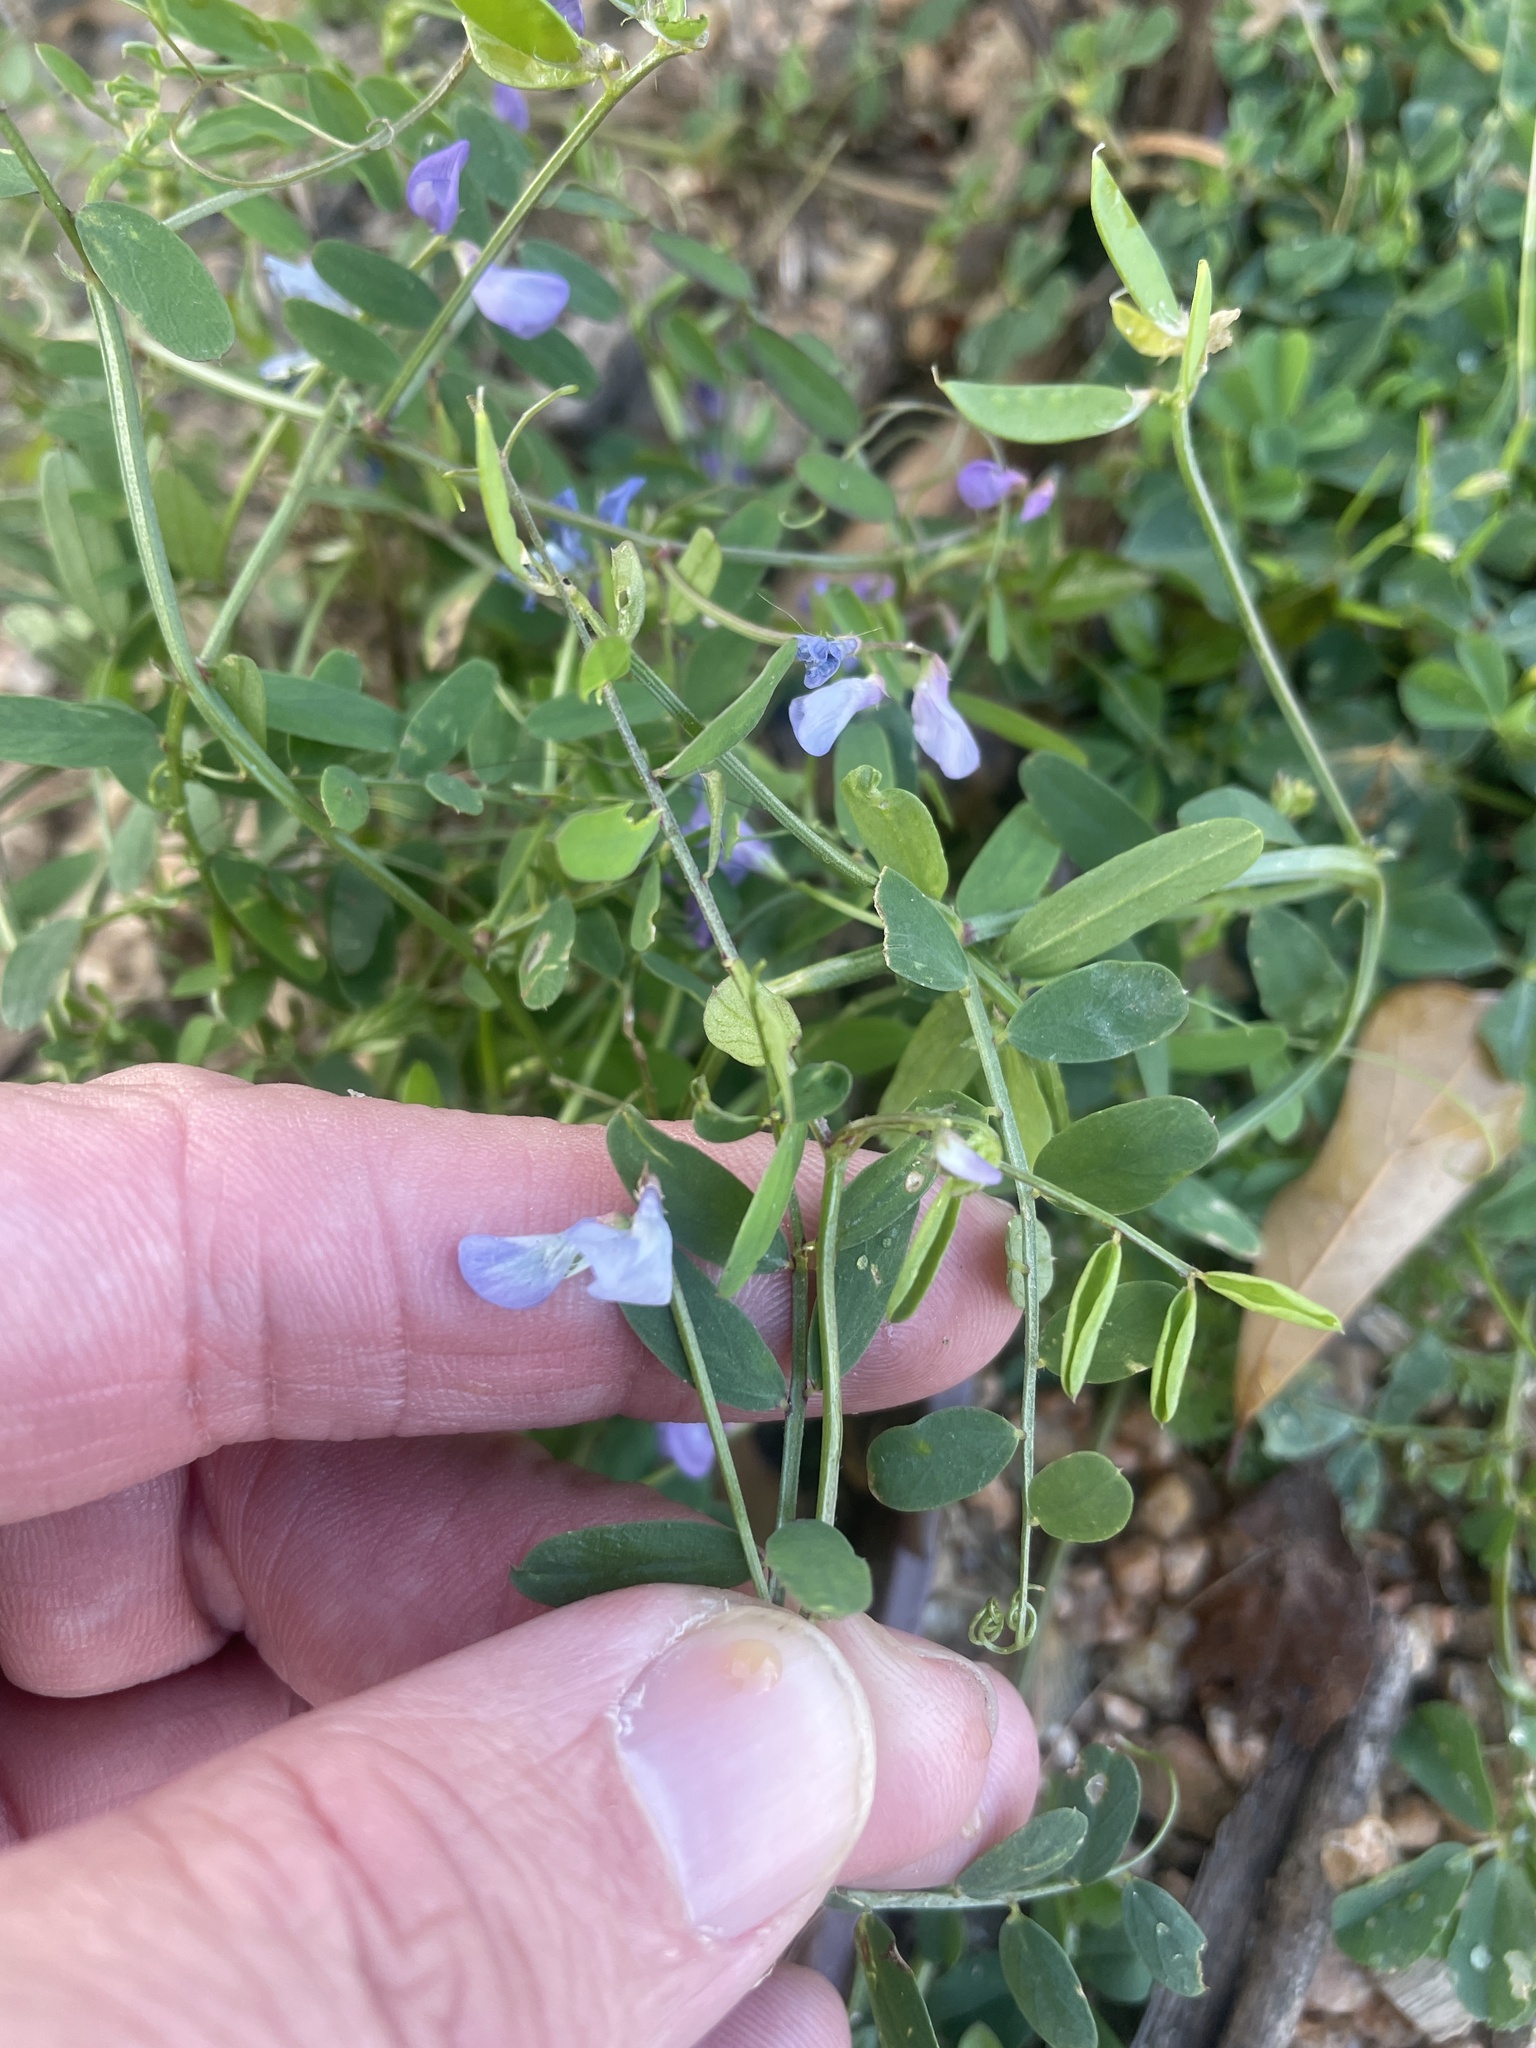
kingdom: Plantae
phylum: Tracheophyta
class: Magnoliopsida
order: Fabales
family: Fabaceae
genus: Vicia
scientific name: Vicia ludoviciana
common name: Louisiana vetch
